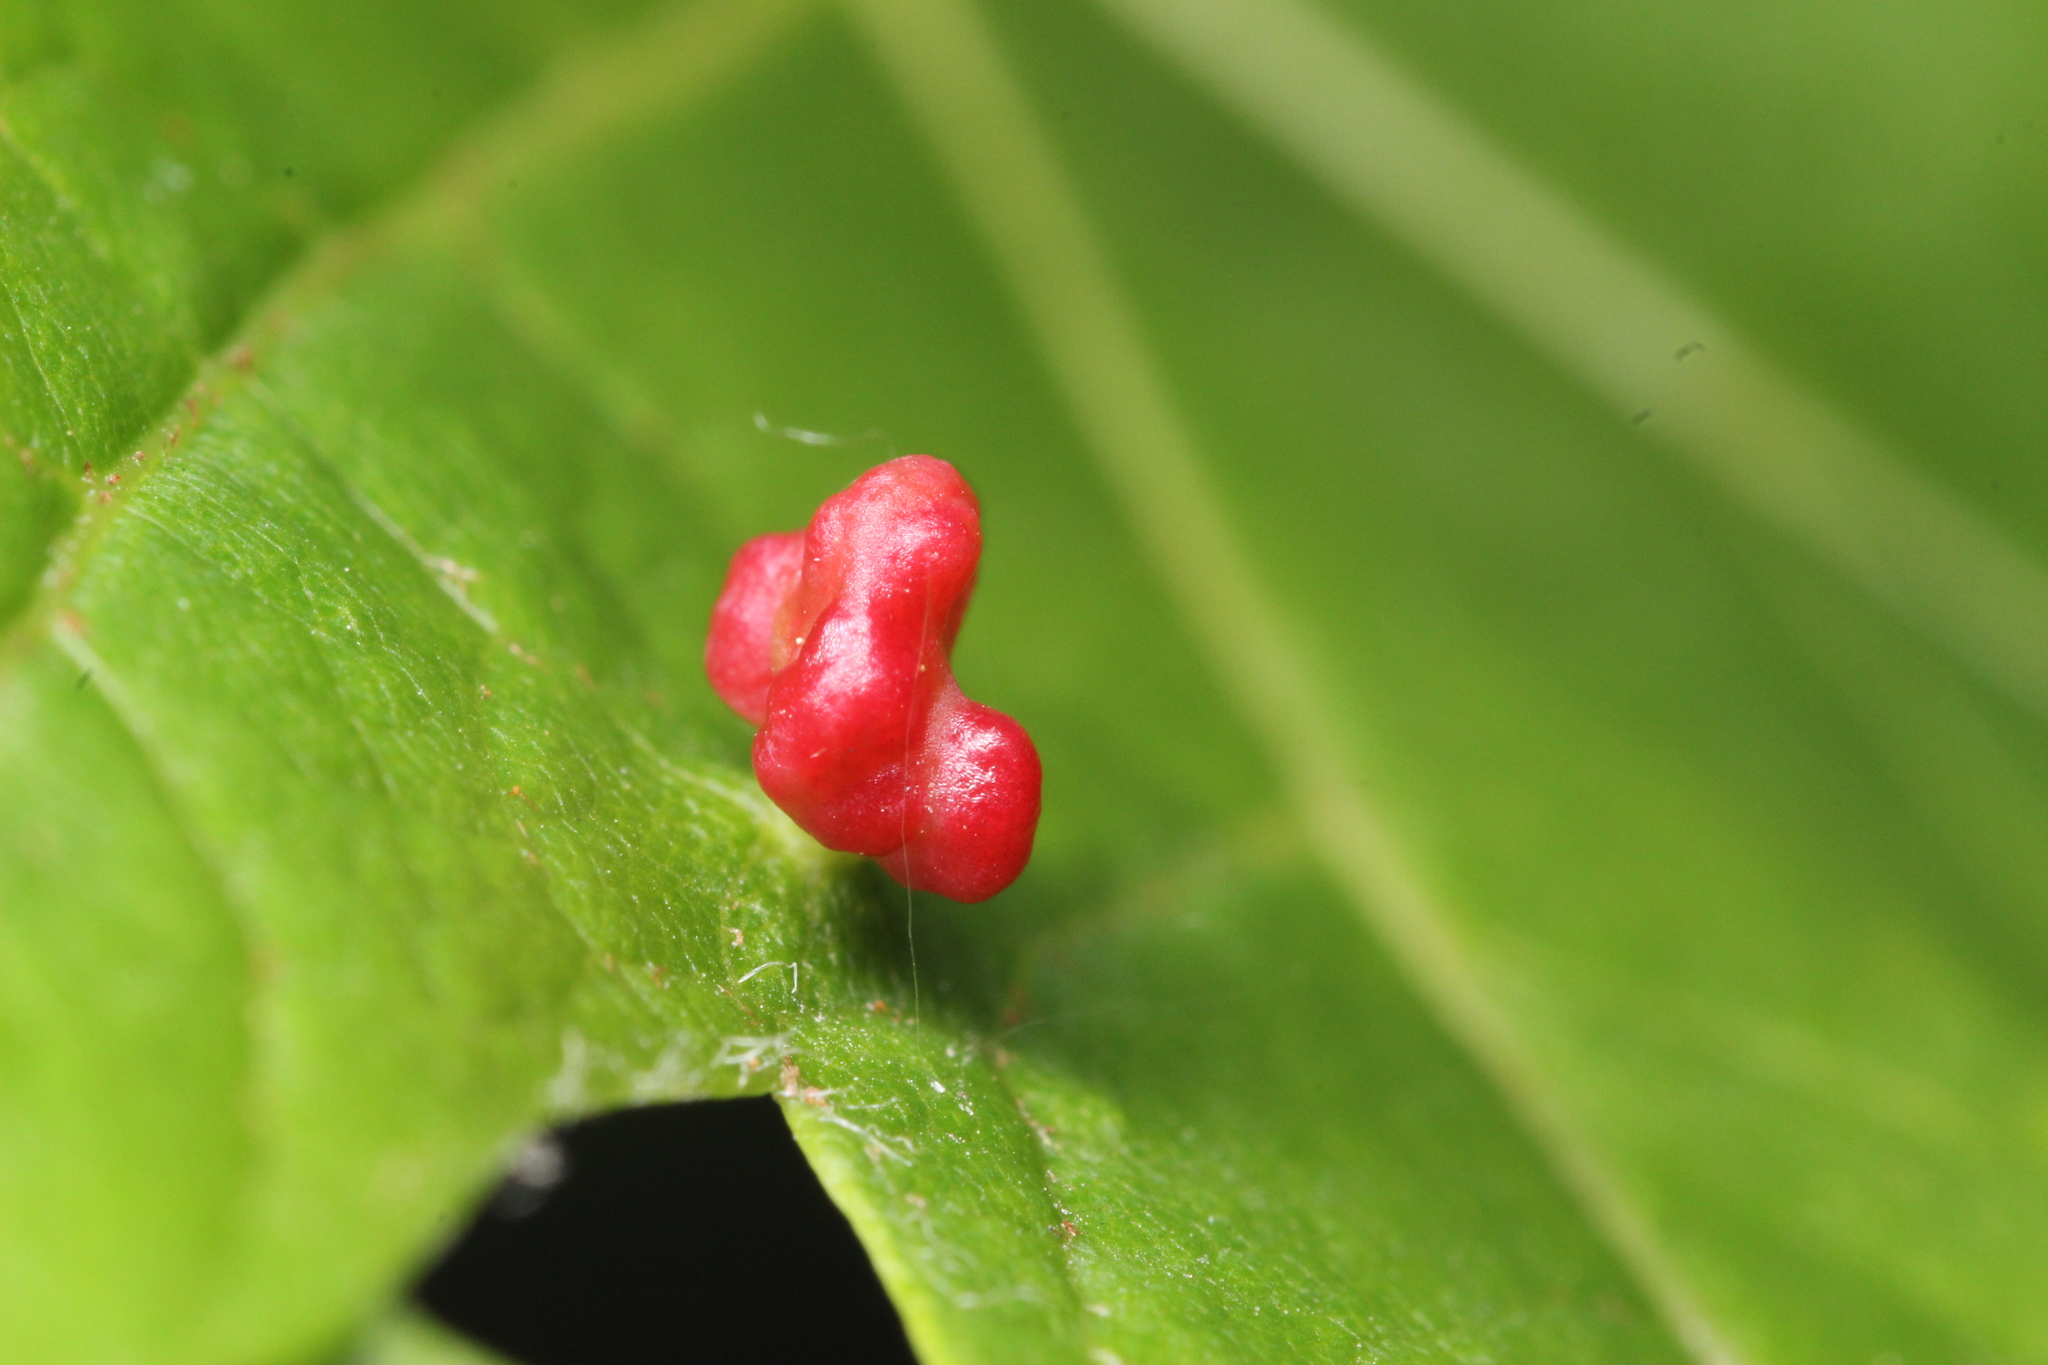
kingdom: Animalia
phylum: Arthropoda
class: Arachnida
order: Trombidiformes
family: Eriophyidae
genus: Vasates
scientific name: Vasates quadripedes
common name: Maple bladder gall mite
